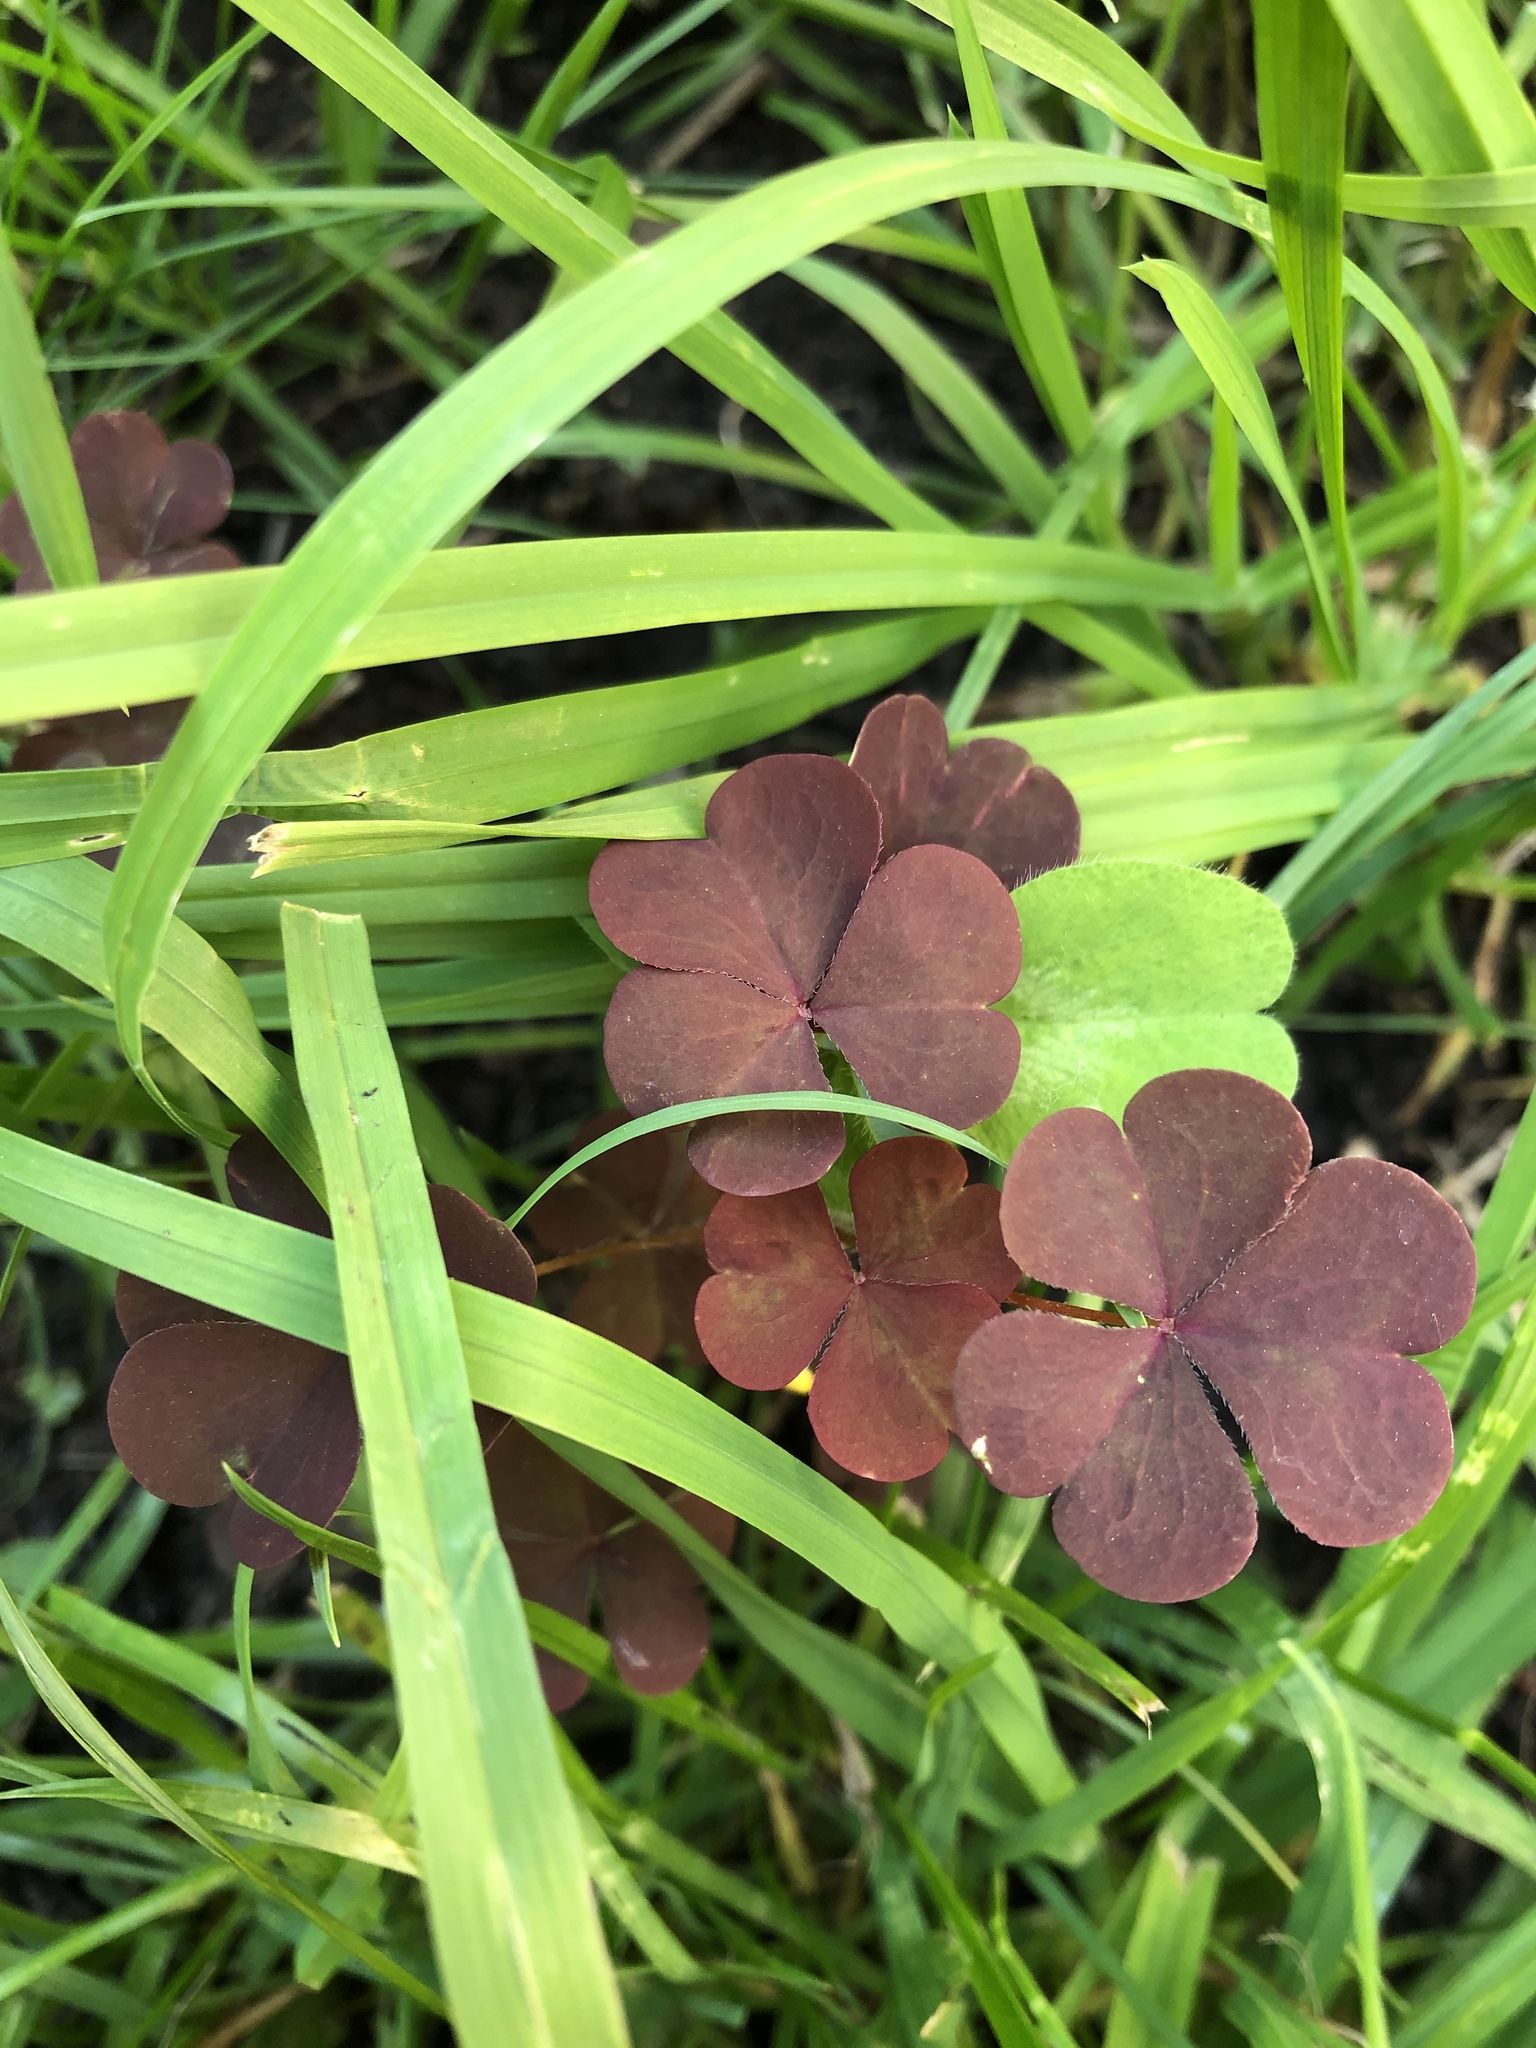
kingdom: Plantae
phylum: Tracheophyta
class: Magnoliopsida
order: Oxalidales
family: Oxalidaceae
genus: Oxalis
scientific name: Oxalis stricta
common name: Upright yellow-sorrel
